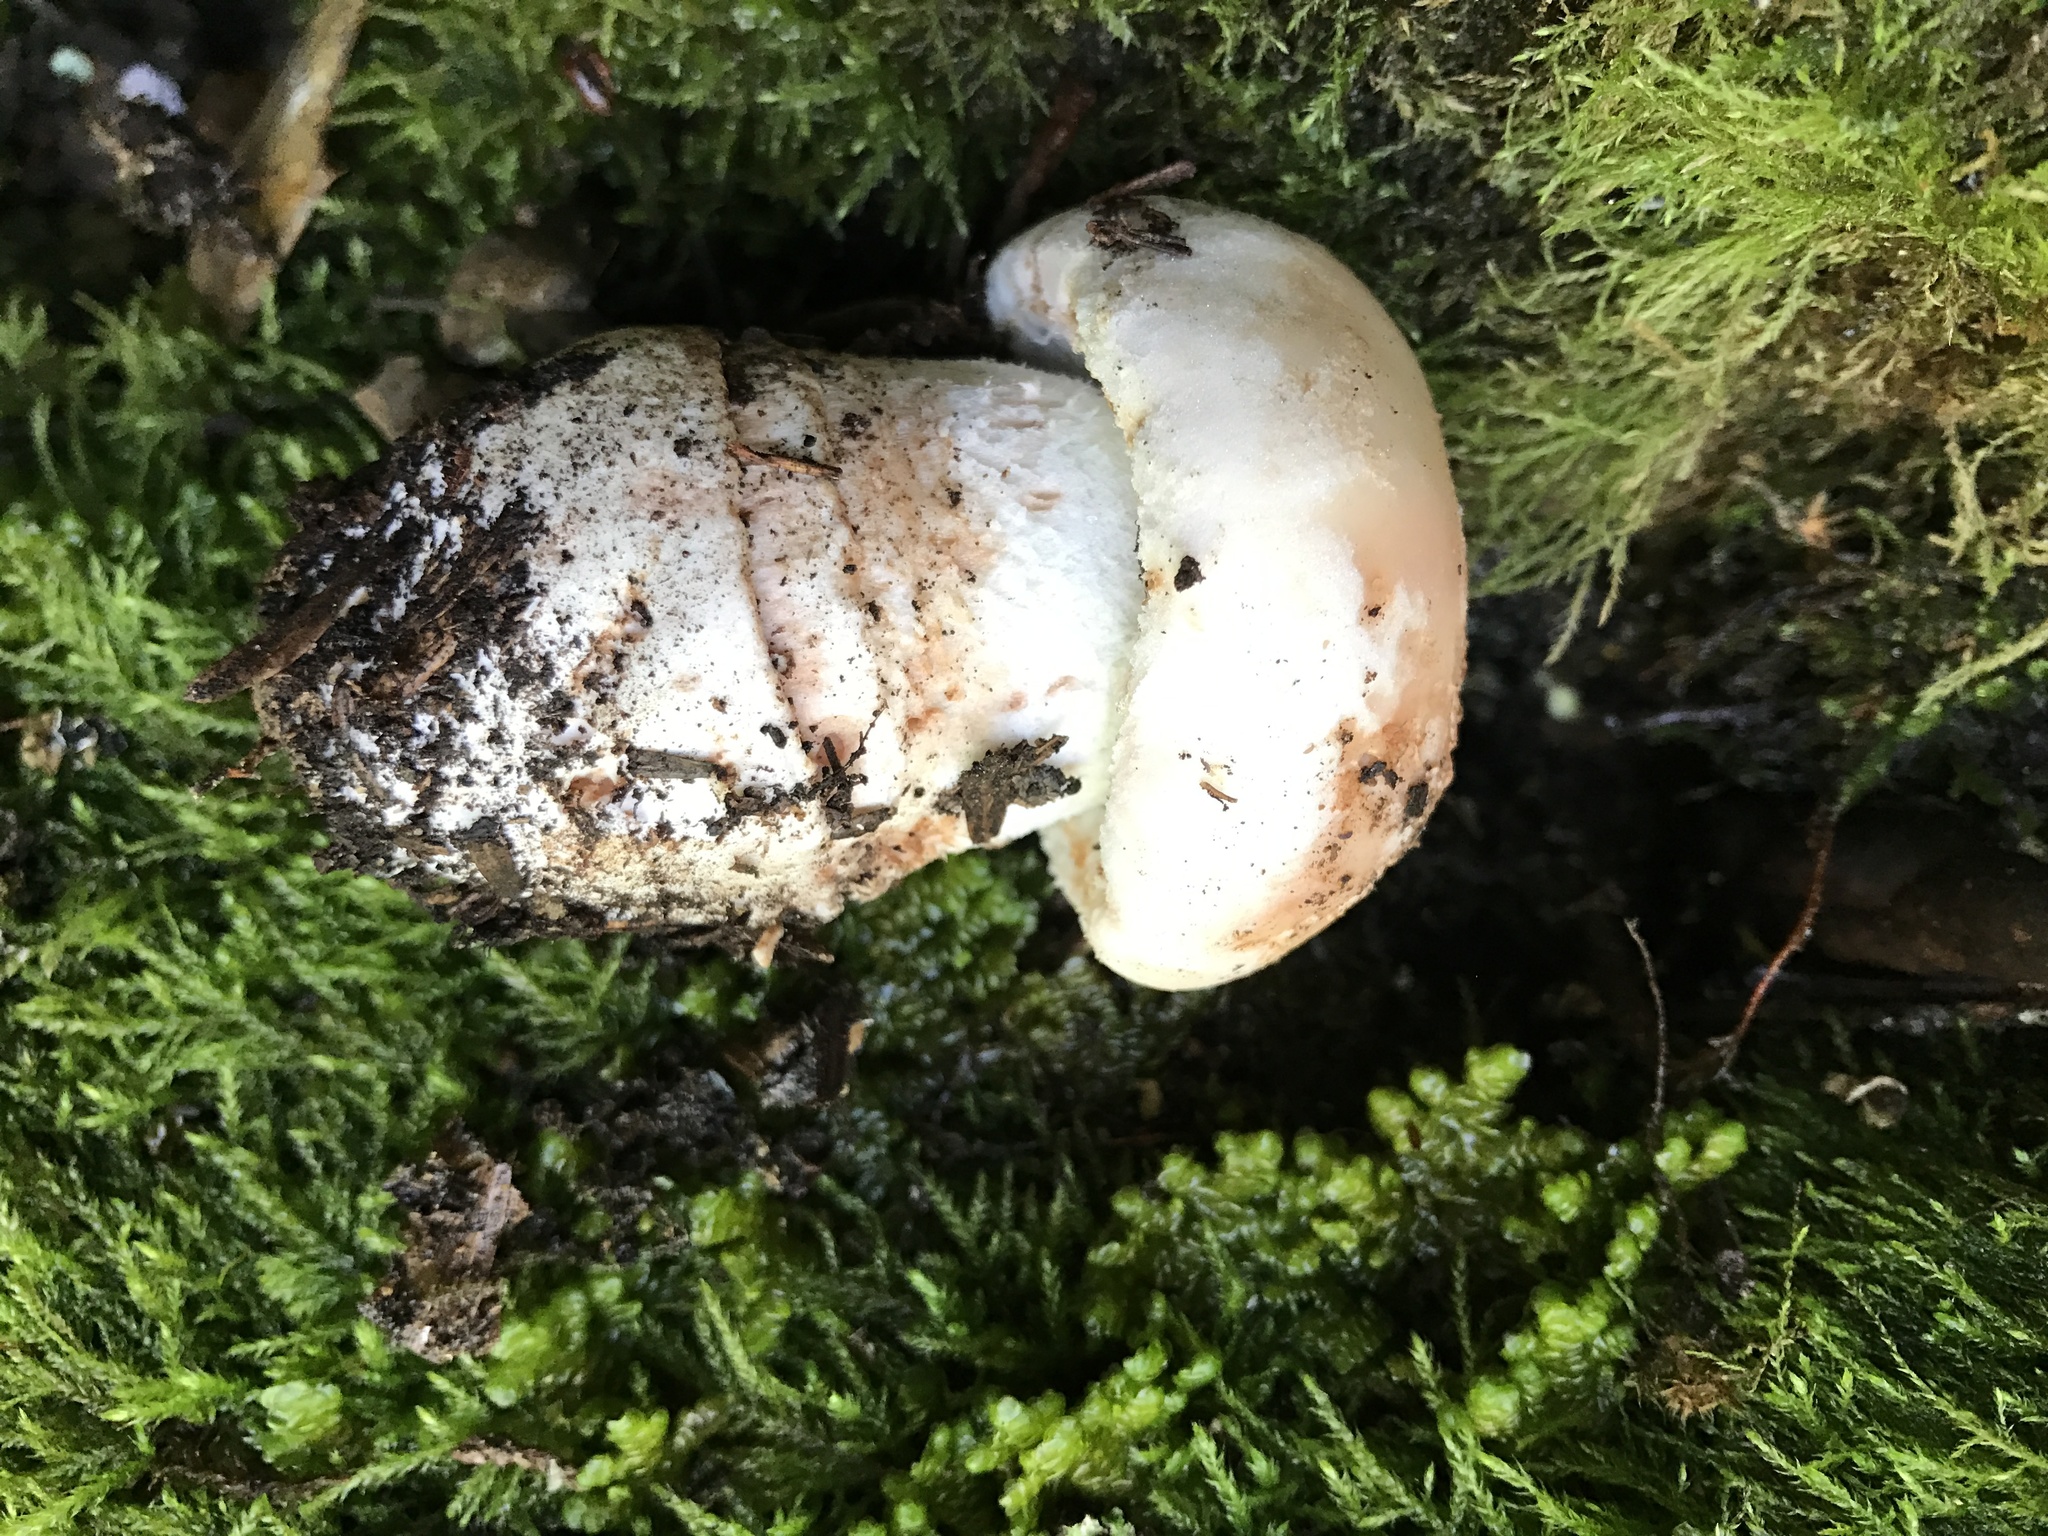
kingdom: Fungi
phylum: Basidiomycota
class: Agaricomycetes
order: Agaricales
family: Amanitaceae
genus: Amanita
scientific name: Amanita novinupta
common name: Blushing bride
